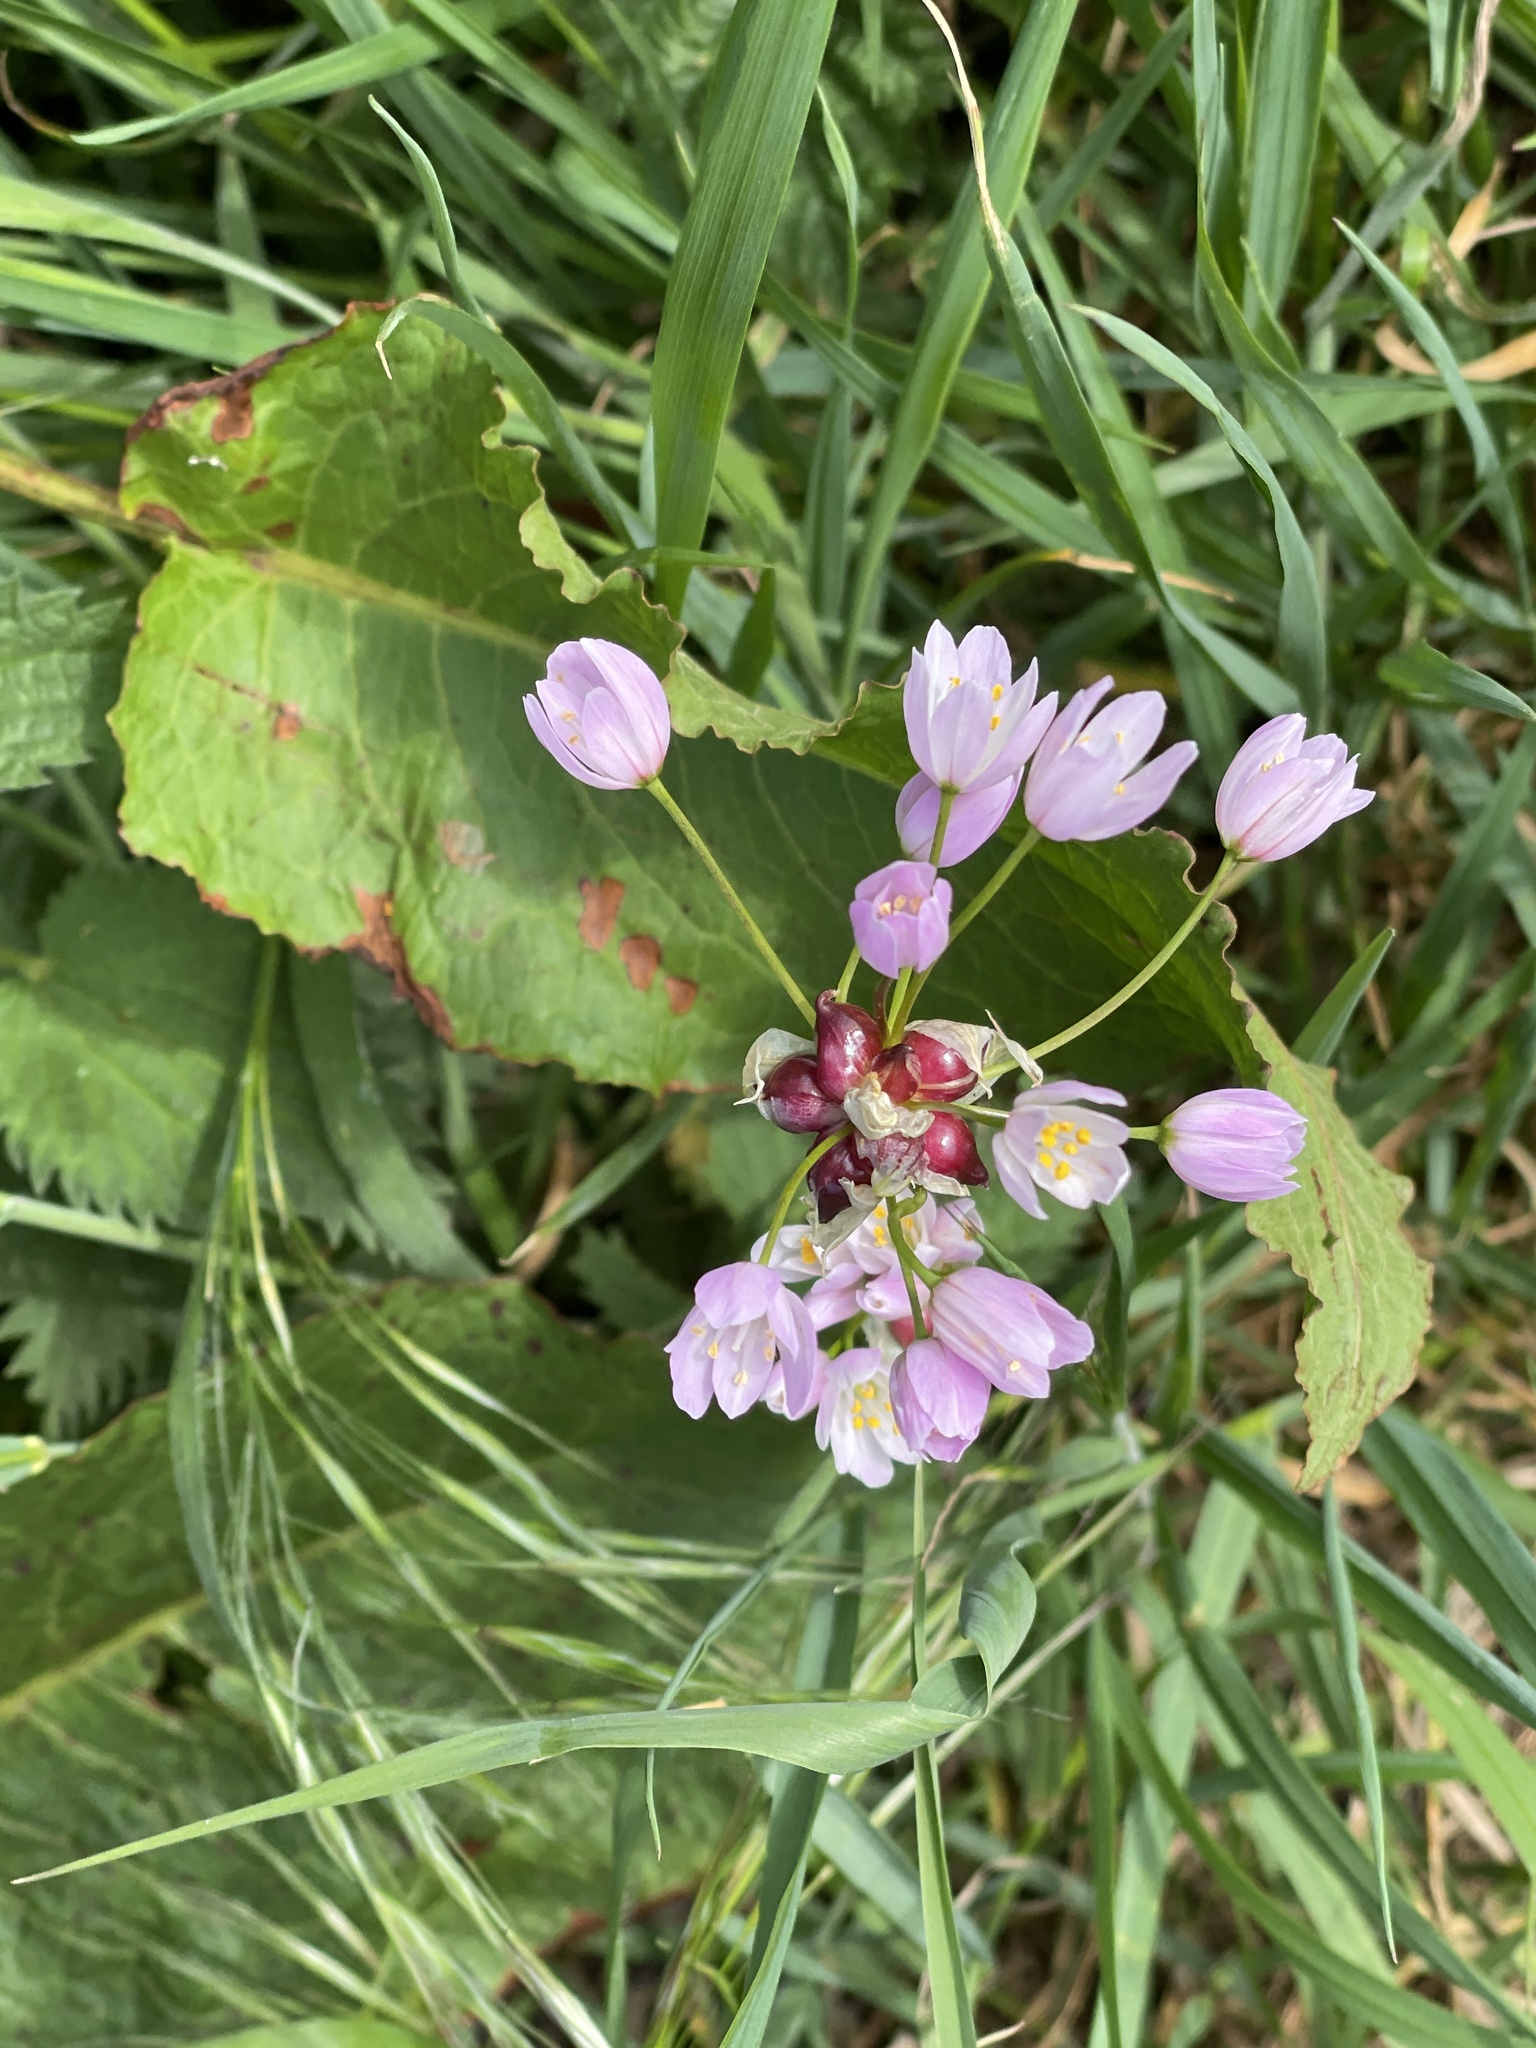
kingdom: Plantae
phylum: Tracheophyta
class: Liliopsida
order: Asparagales
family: Amaryllidaceae
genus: Allium
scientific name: Allium roseum
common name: Rosy garlic
